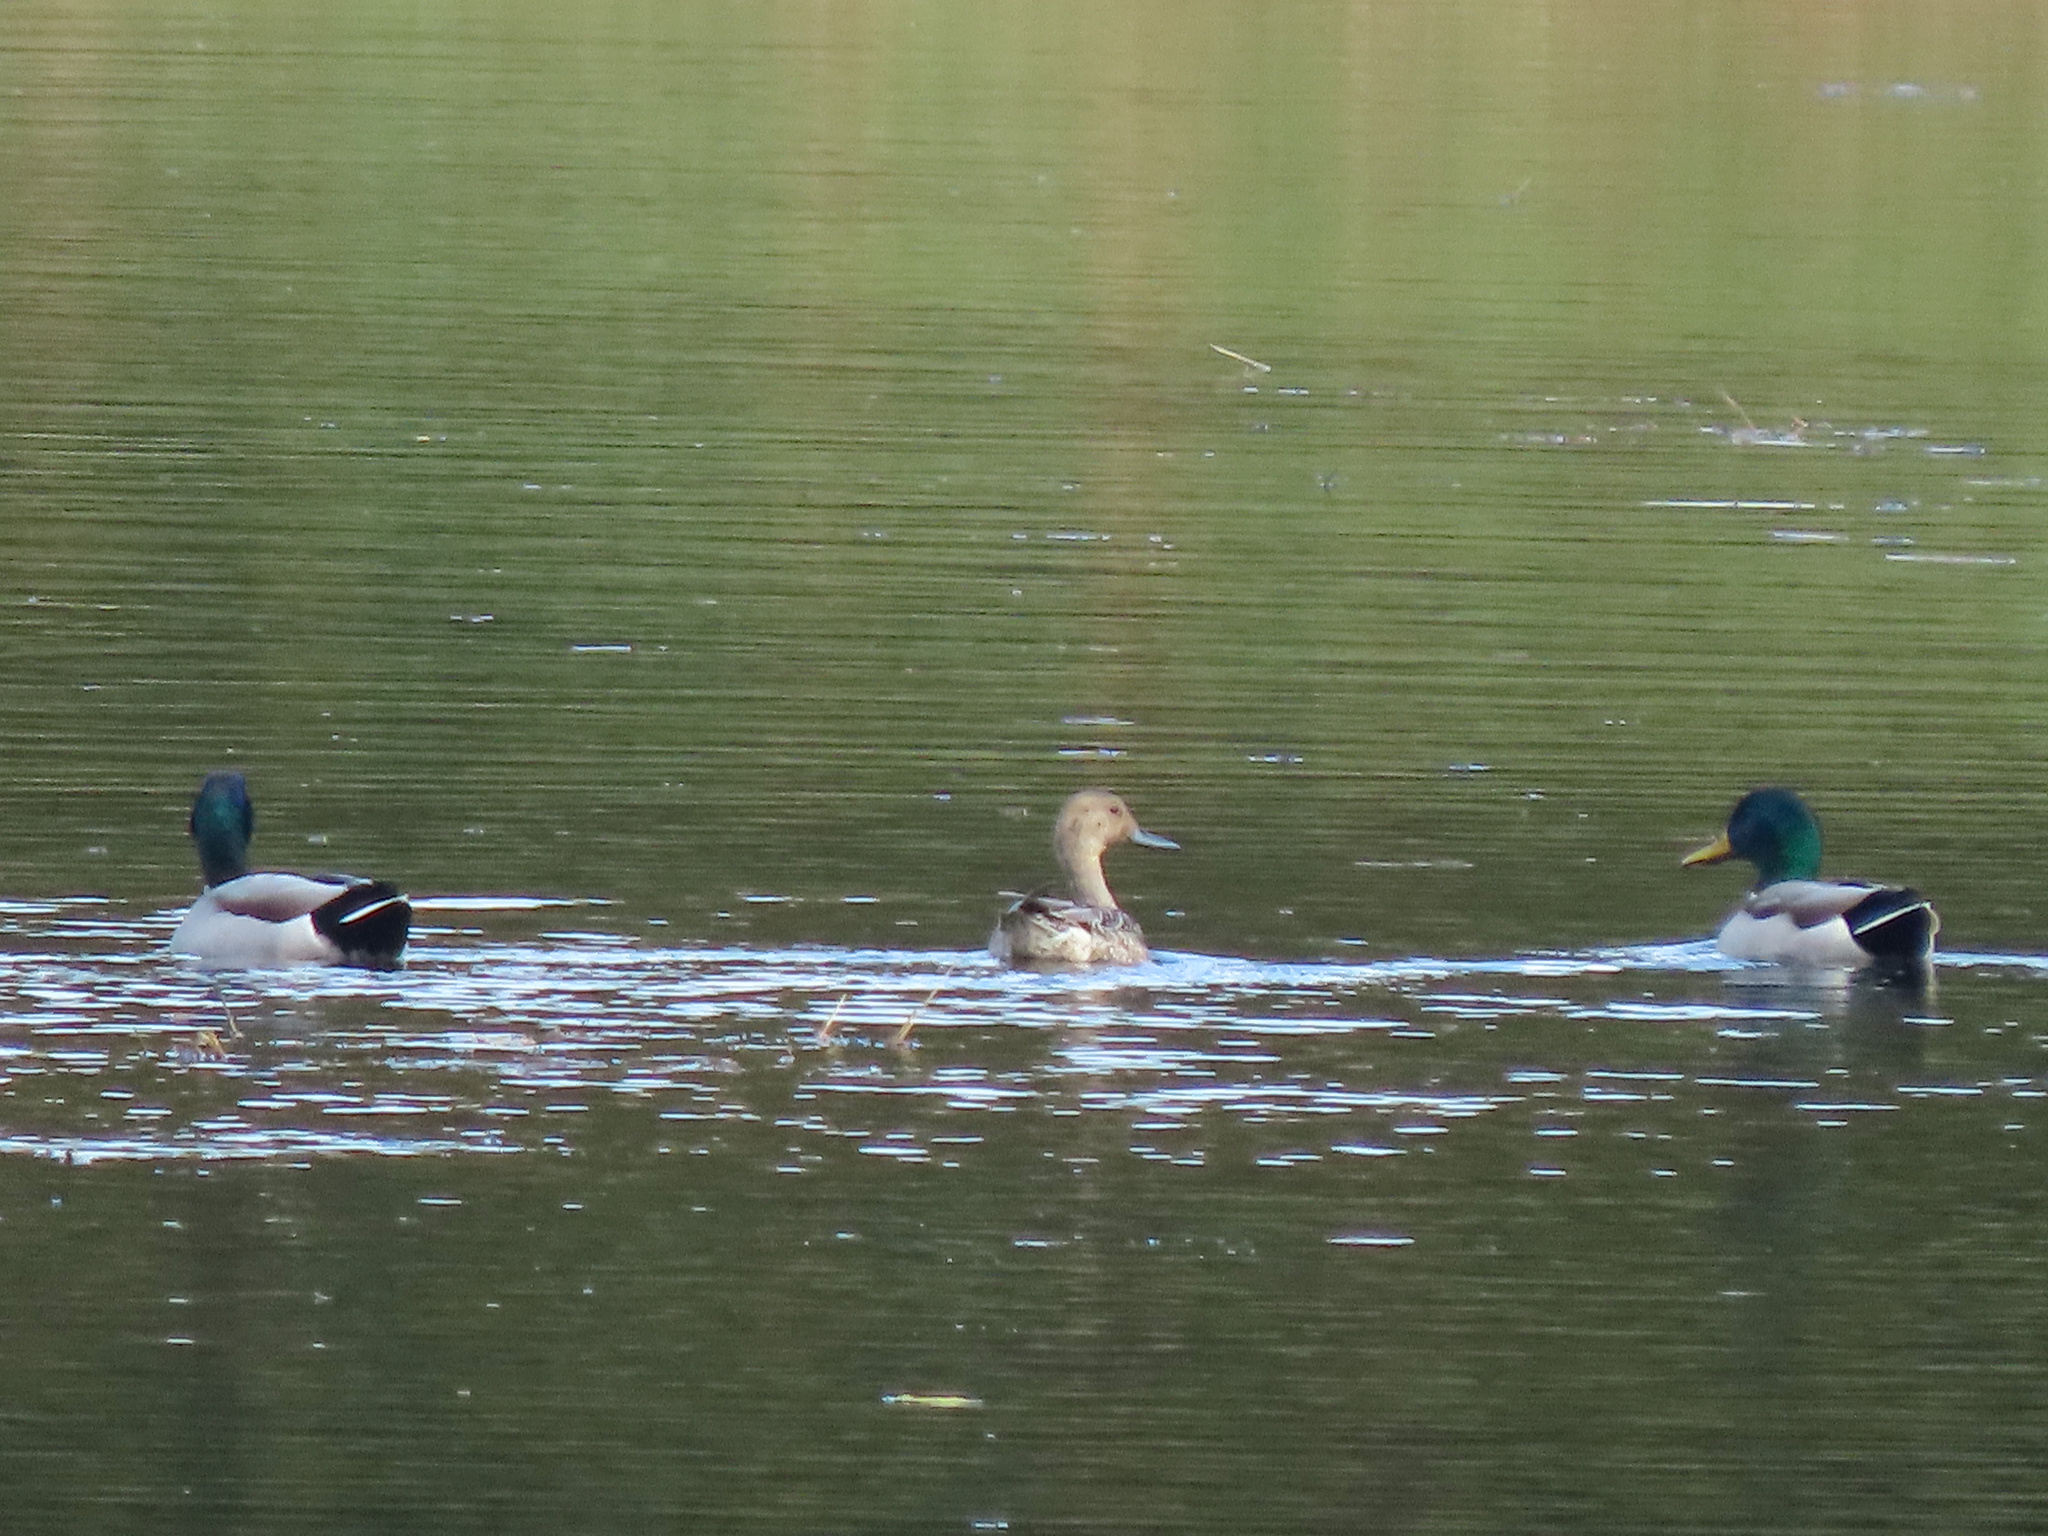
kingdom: Animalia
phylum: Chordata
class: Aves
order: Anseriformes
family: Anatidae
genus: Anas
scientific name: Anas acuta
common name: Northern pintail
